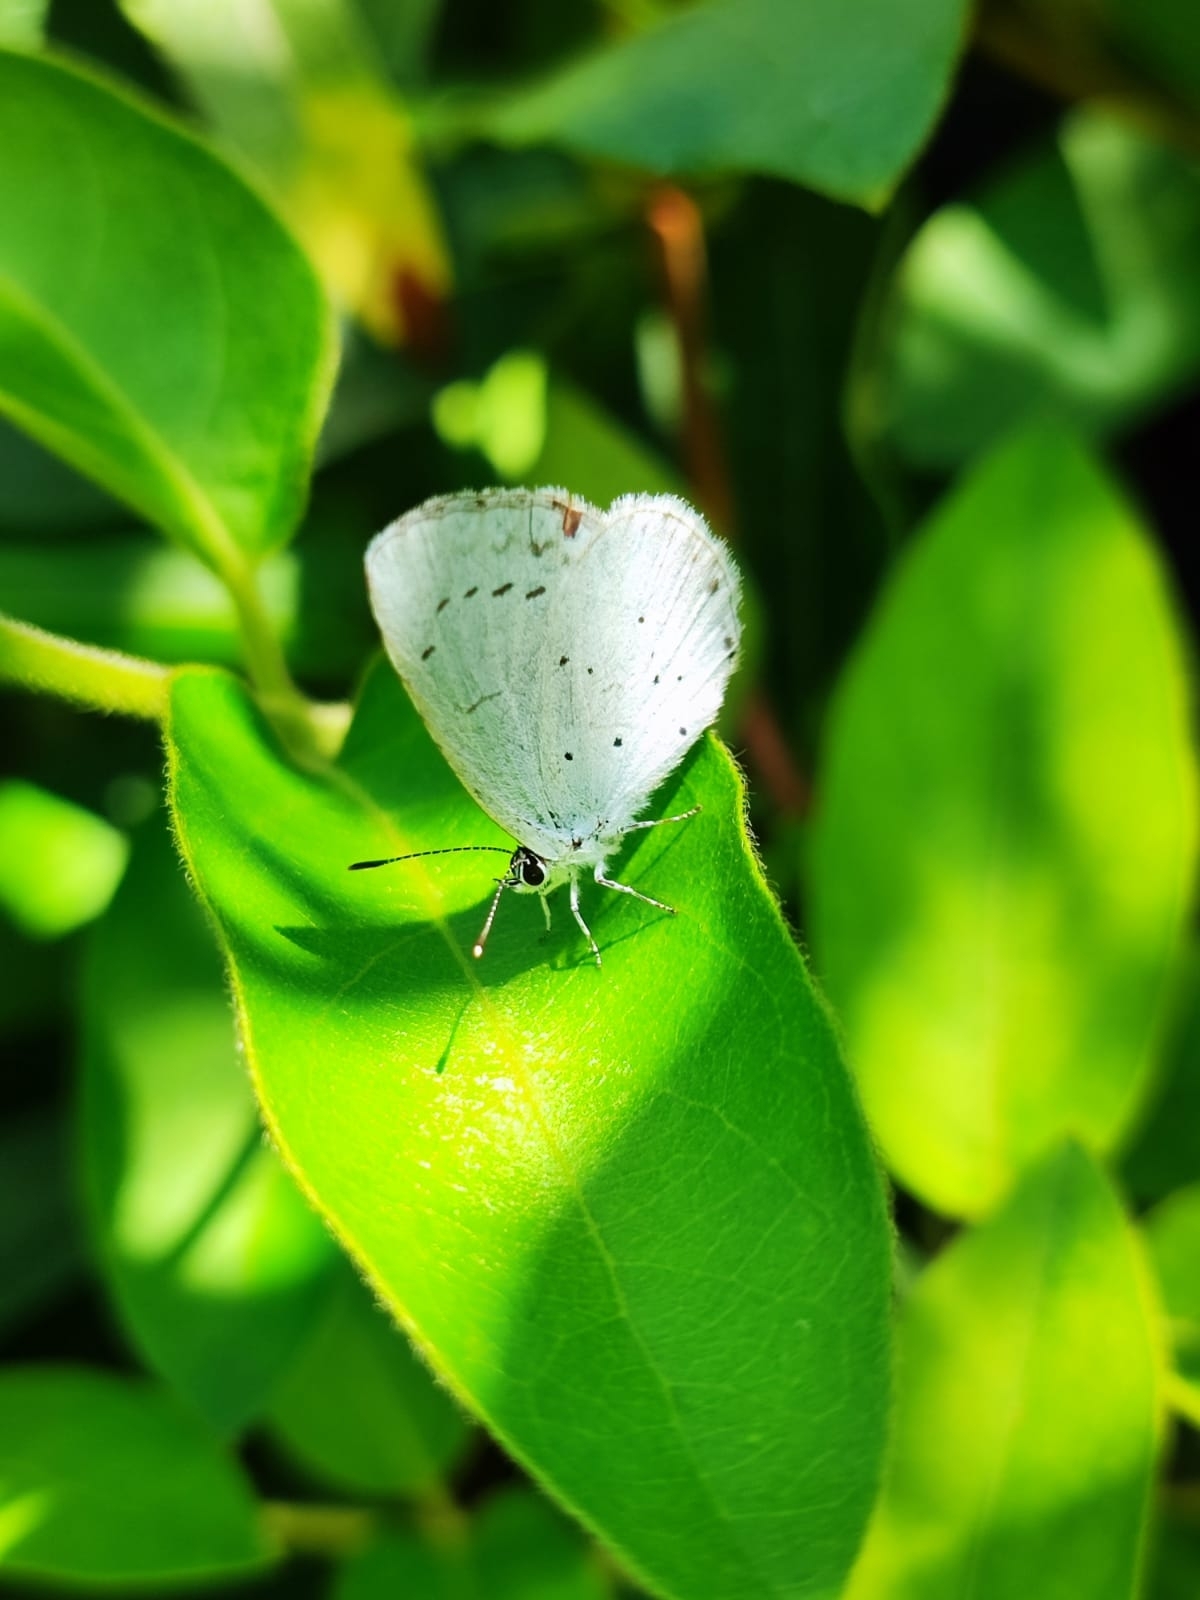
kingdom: Animalia
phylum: Arthropoda
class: Insecta
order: Lepidoptera
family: Lycaenidae
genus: Celastrina
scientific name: Celastrina argiolus
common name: Holly blue
